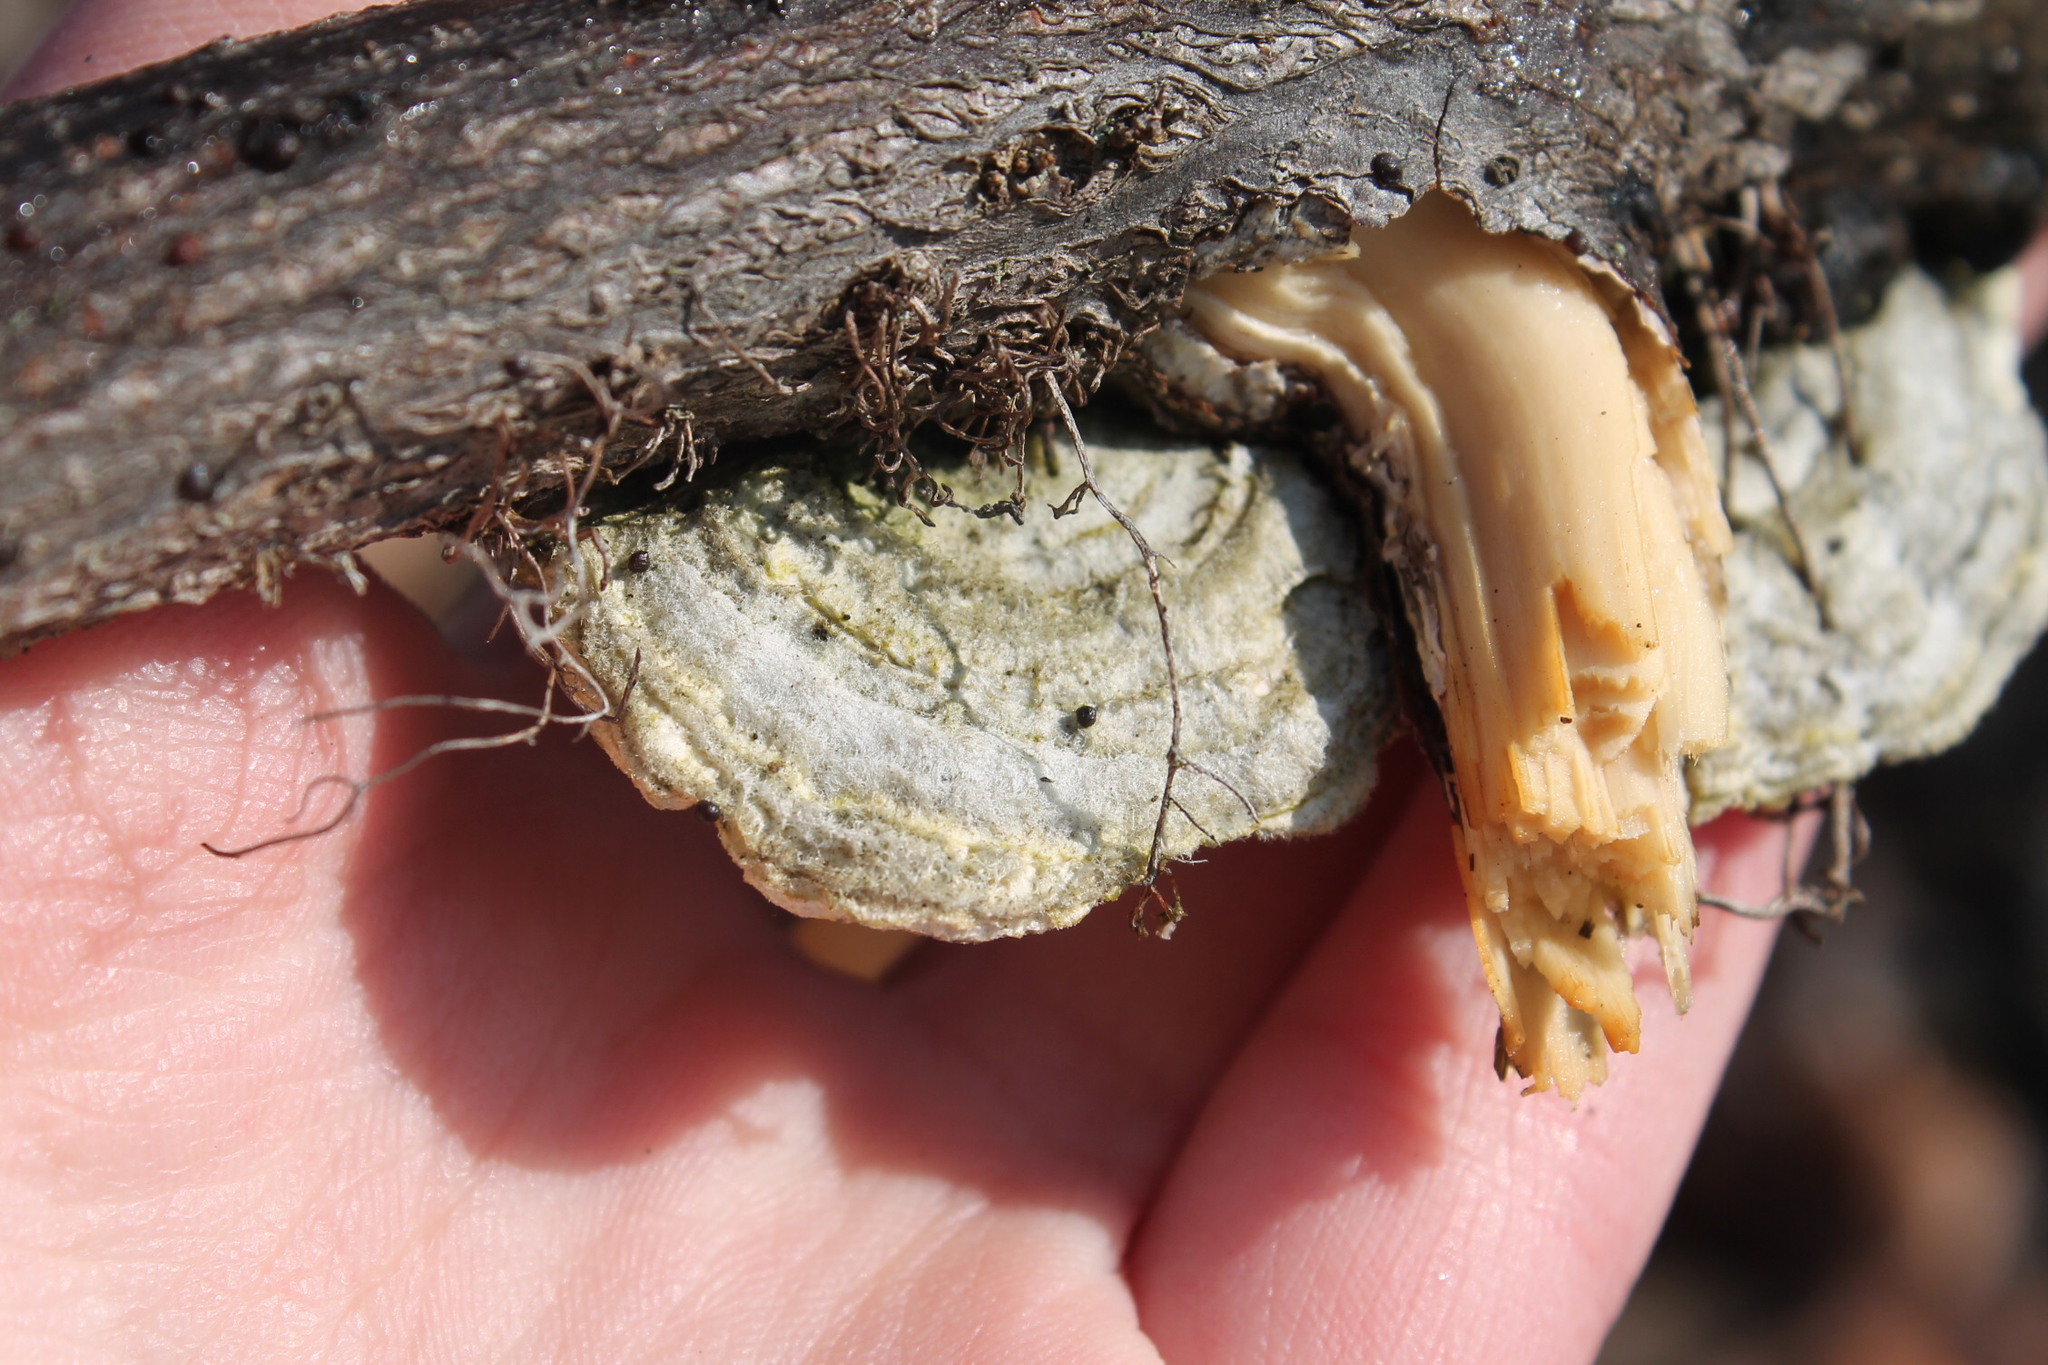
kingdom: Fungi
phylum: Basidiomycota
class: Agaricomycetes
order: Polyporales
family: Polyporaceae
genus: Trametes
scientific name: Trametes hirsuta
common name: Hairy bracket
